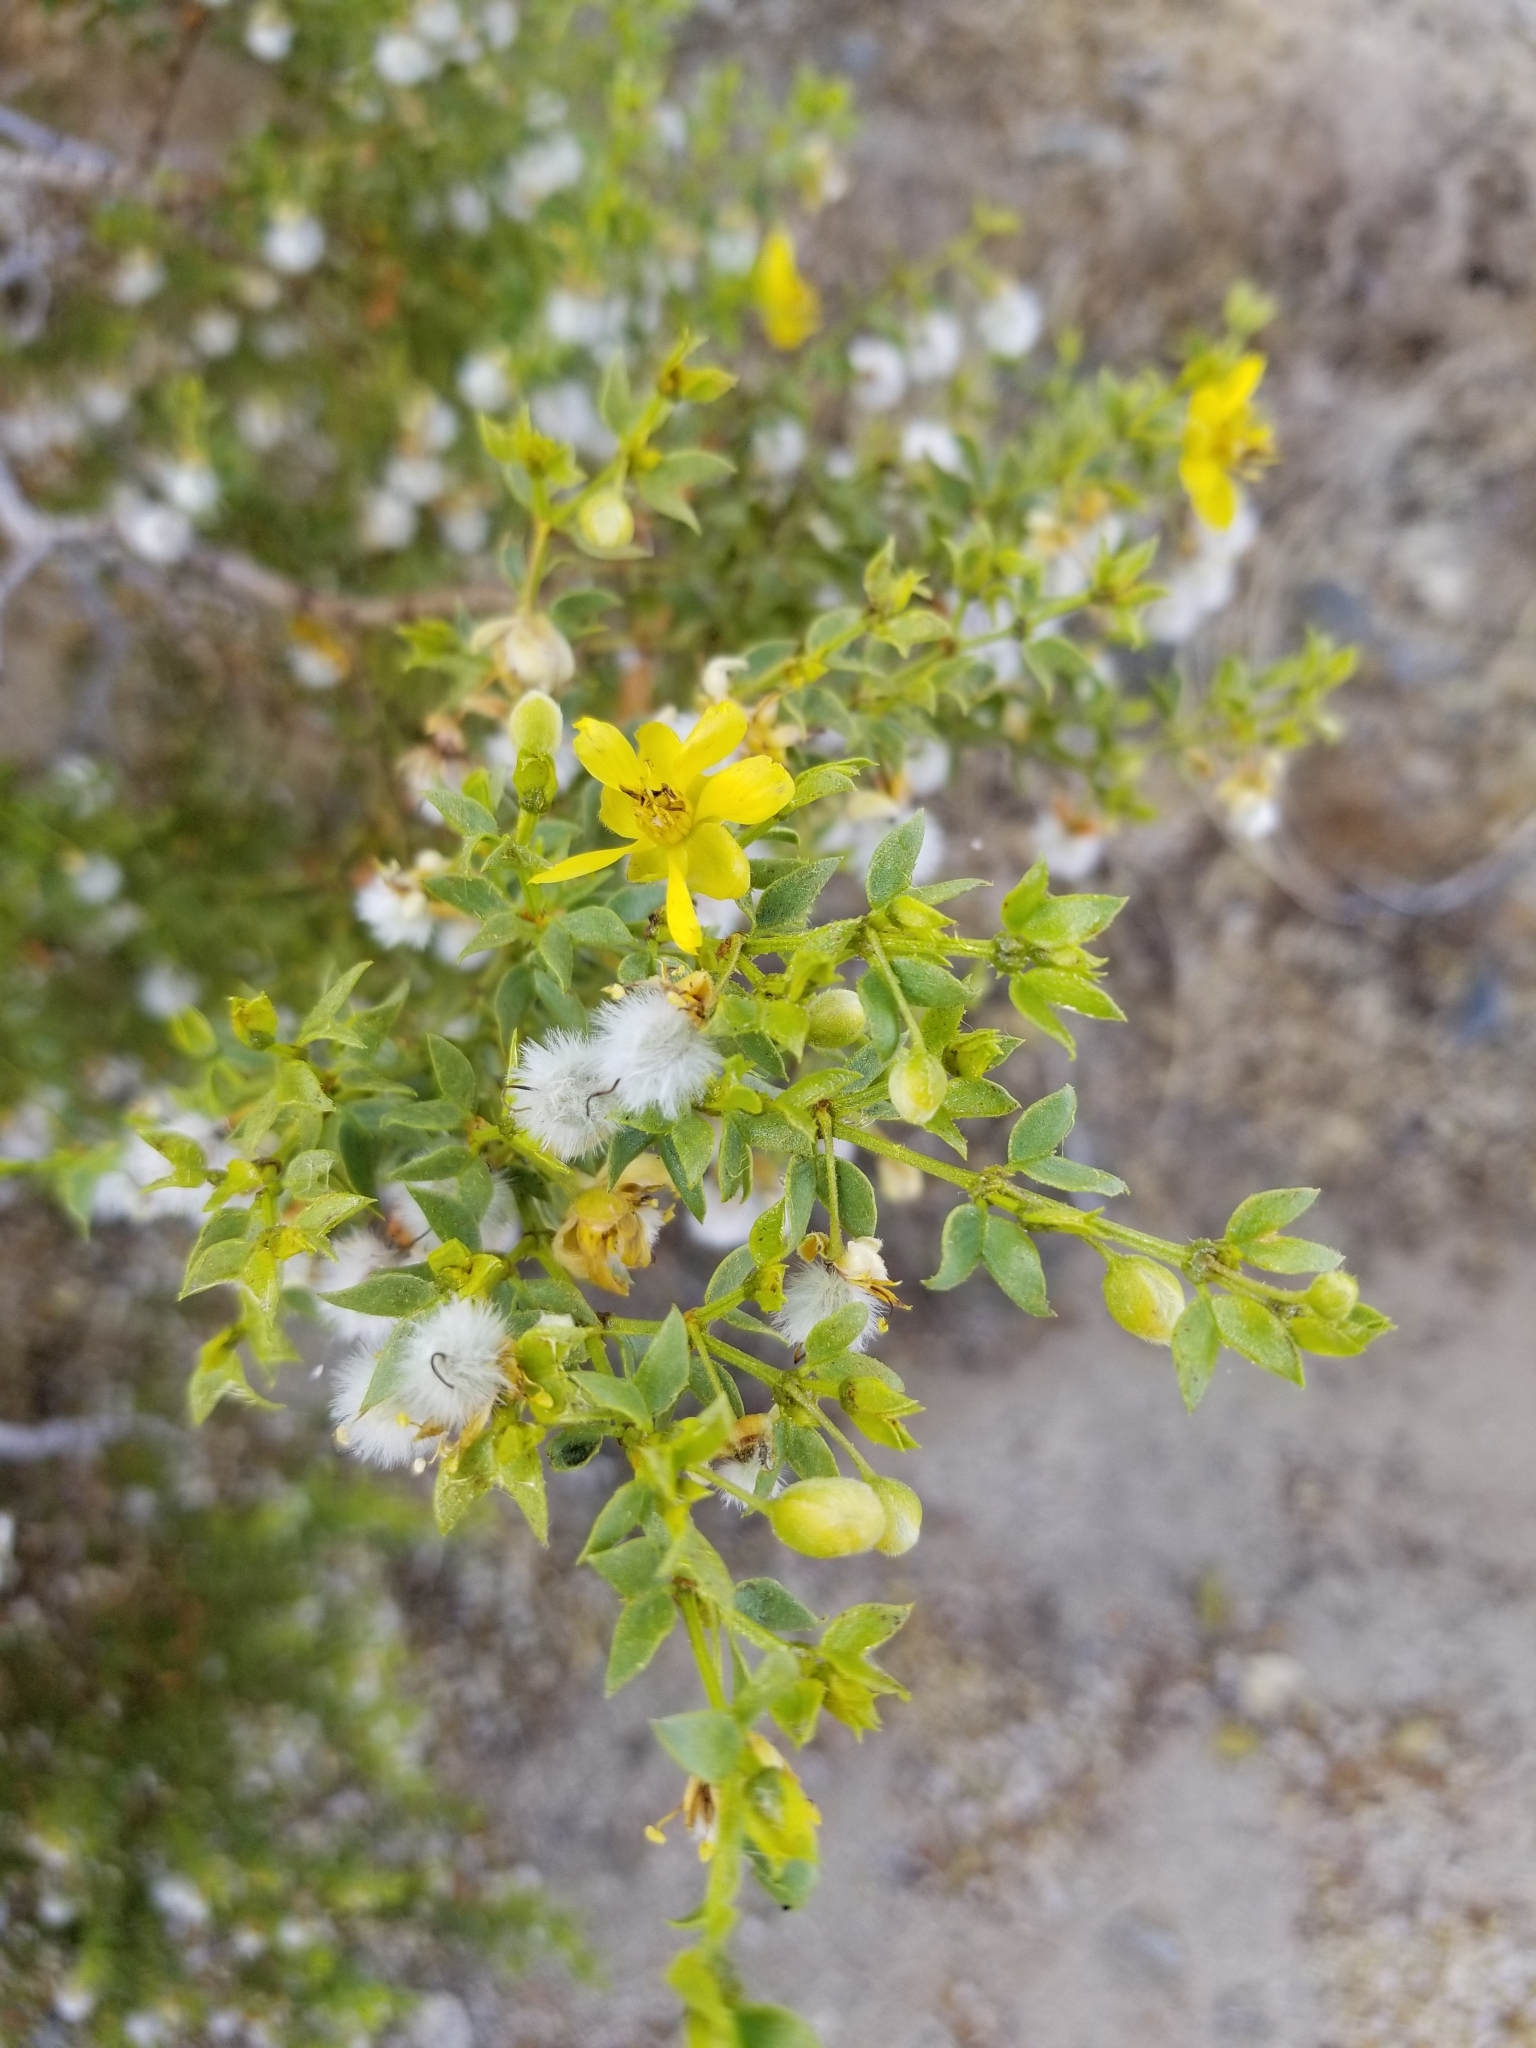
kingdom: Plantae
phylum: Tracheophyta
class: Magnoliopsida
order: Zygophyllales
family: Zygophyllaceae
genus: Larrea
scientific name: Larrea tridentata
